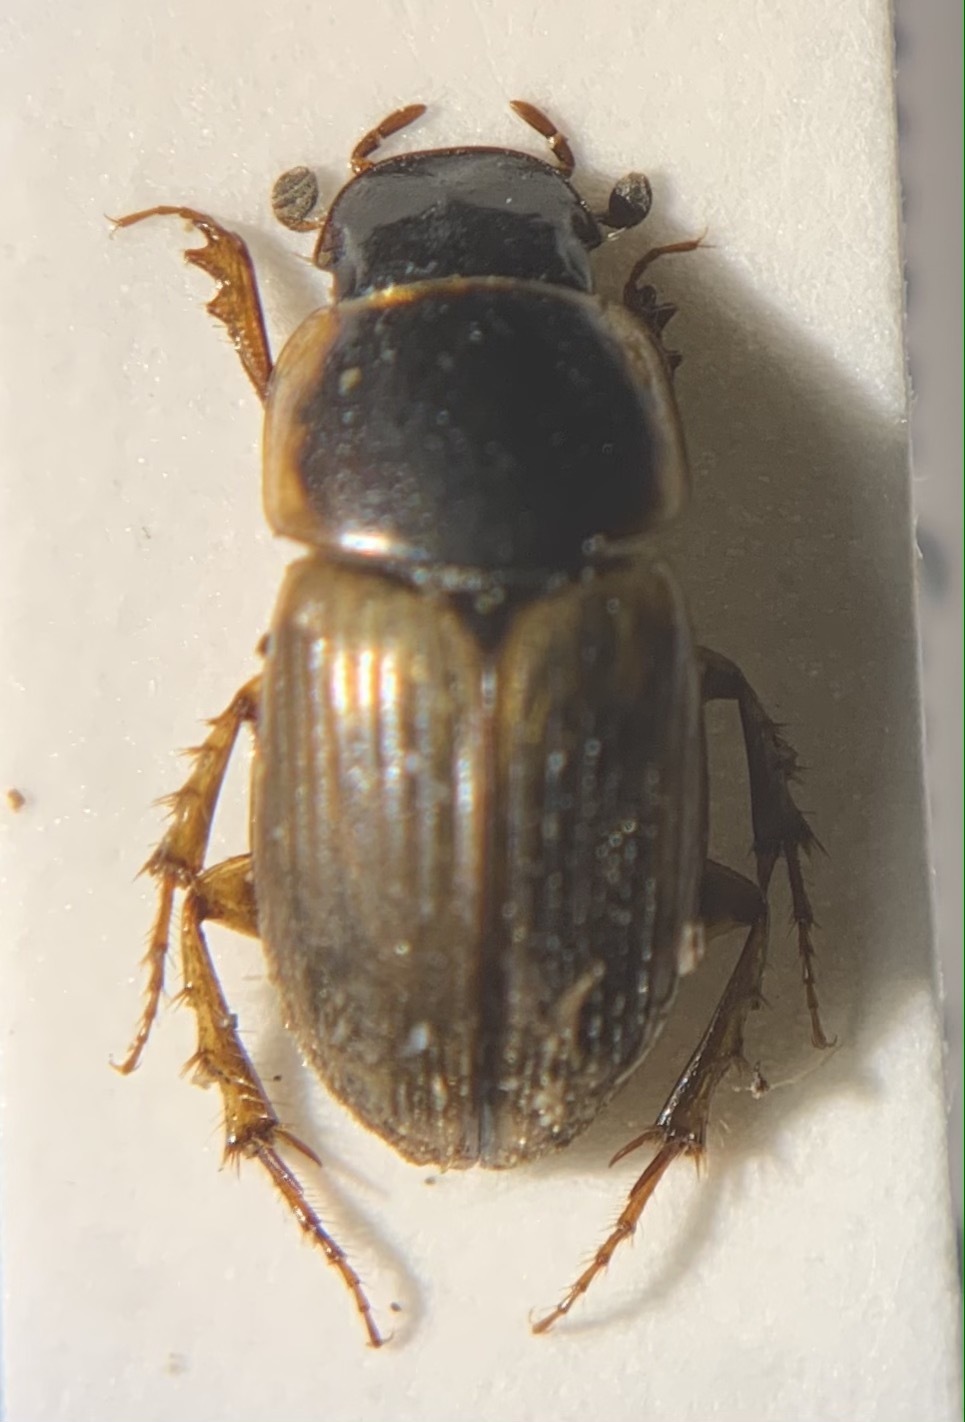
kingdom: Animalia
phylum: Arthropoda
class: Insecta
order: Coleoptera
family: Scarabaeidae
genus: Melinopterus
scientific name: Melinopterus prodromus
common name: Spring small dung beetle
